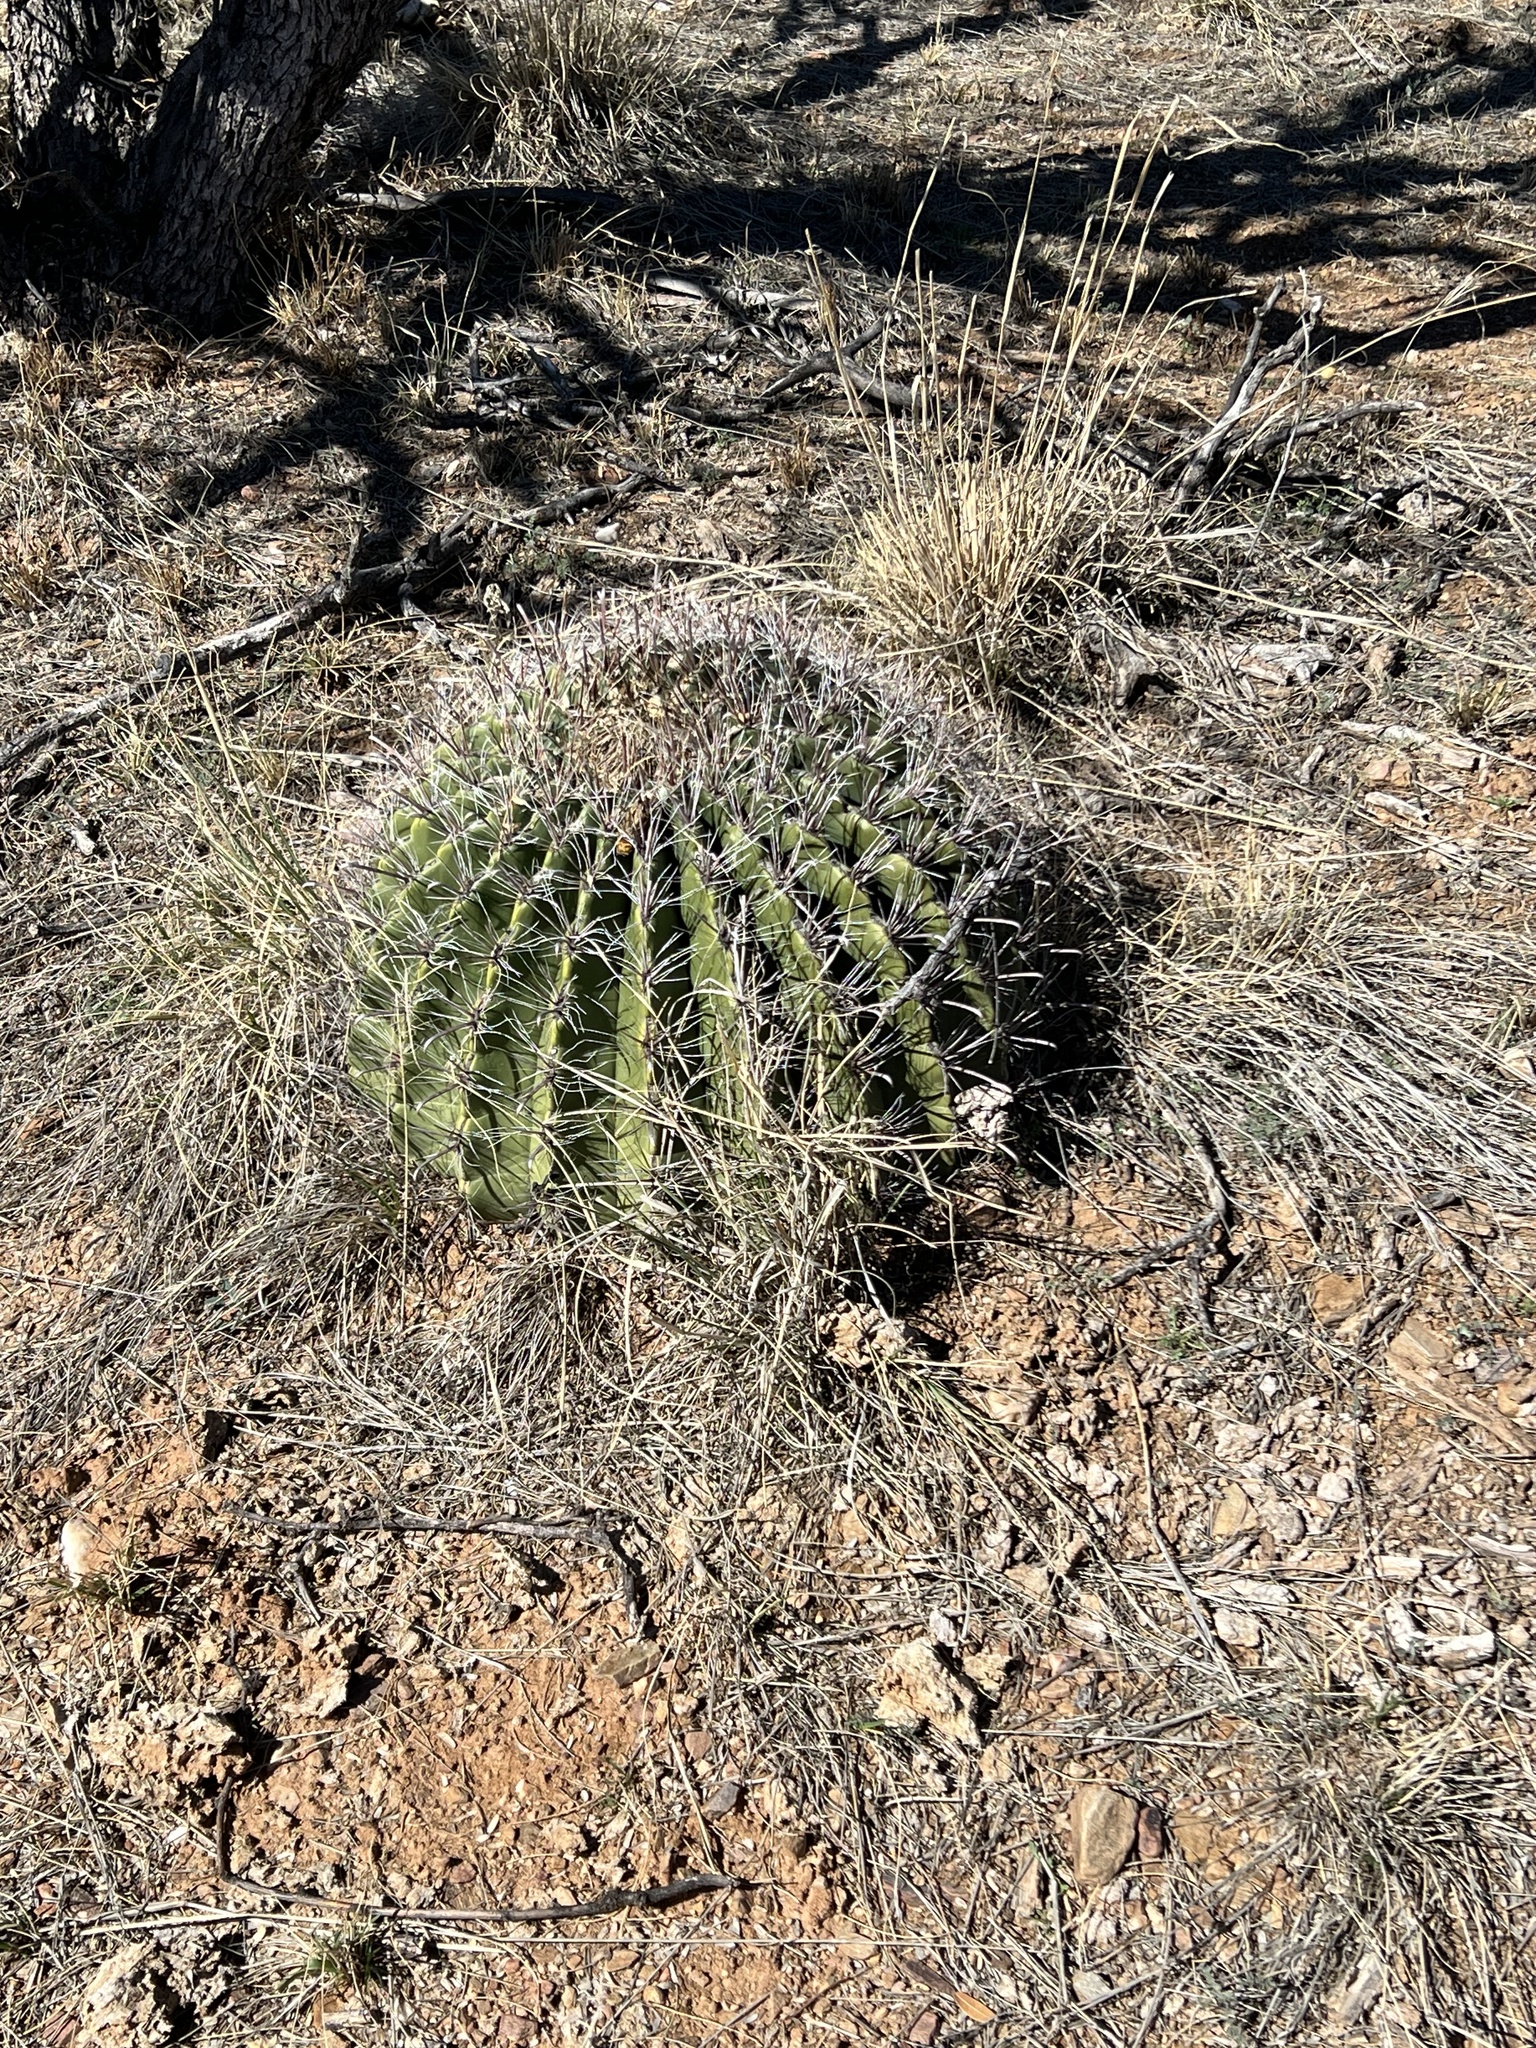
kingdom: Plantae
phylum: Tracheophyta
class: Magnoliopsida
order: Caryophyllales
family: Cactaceae
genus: Ferocactus
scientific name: Ferocactus wislizeni
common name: Candy barrel cactus
